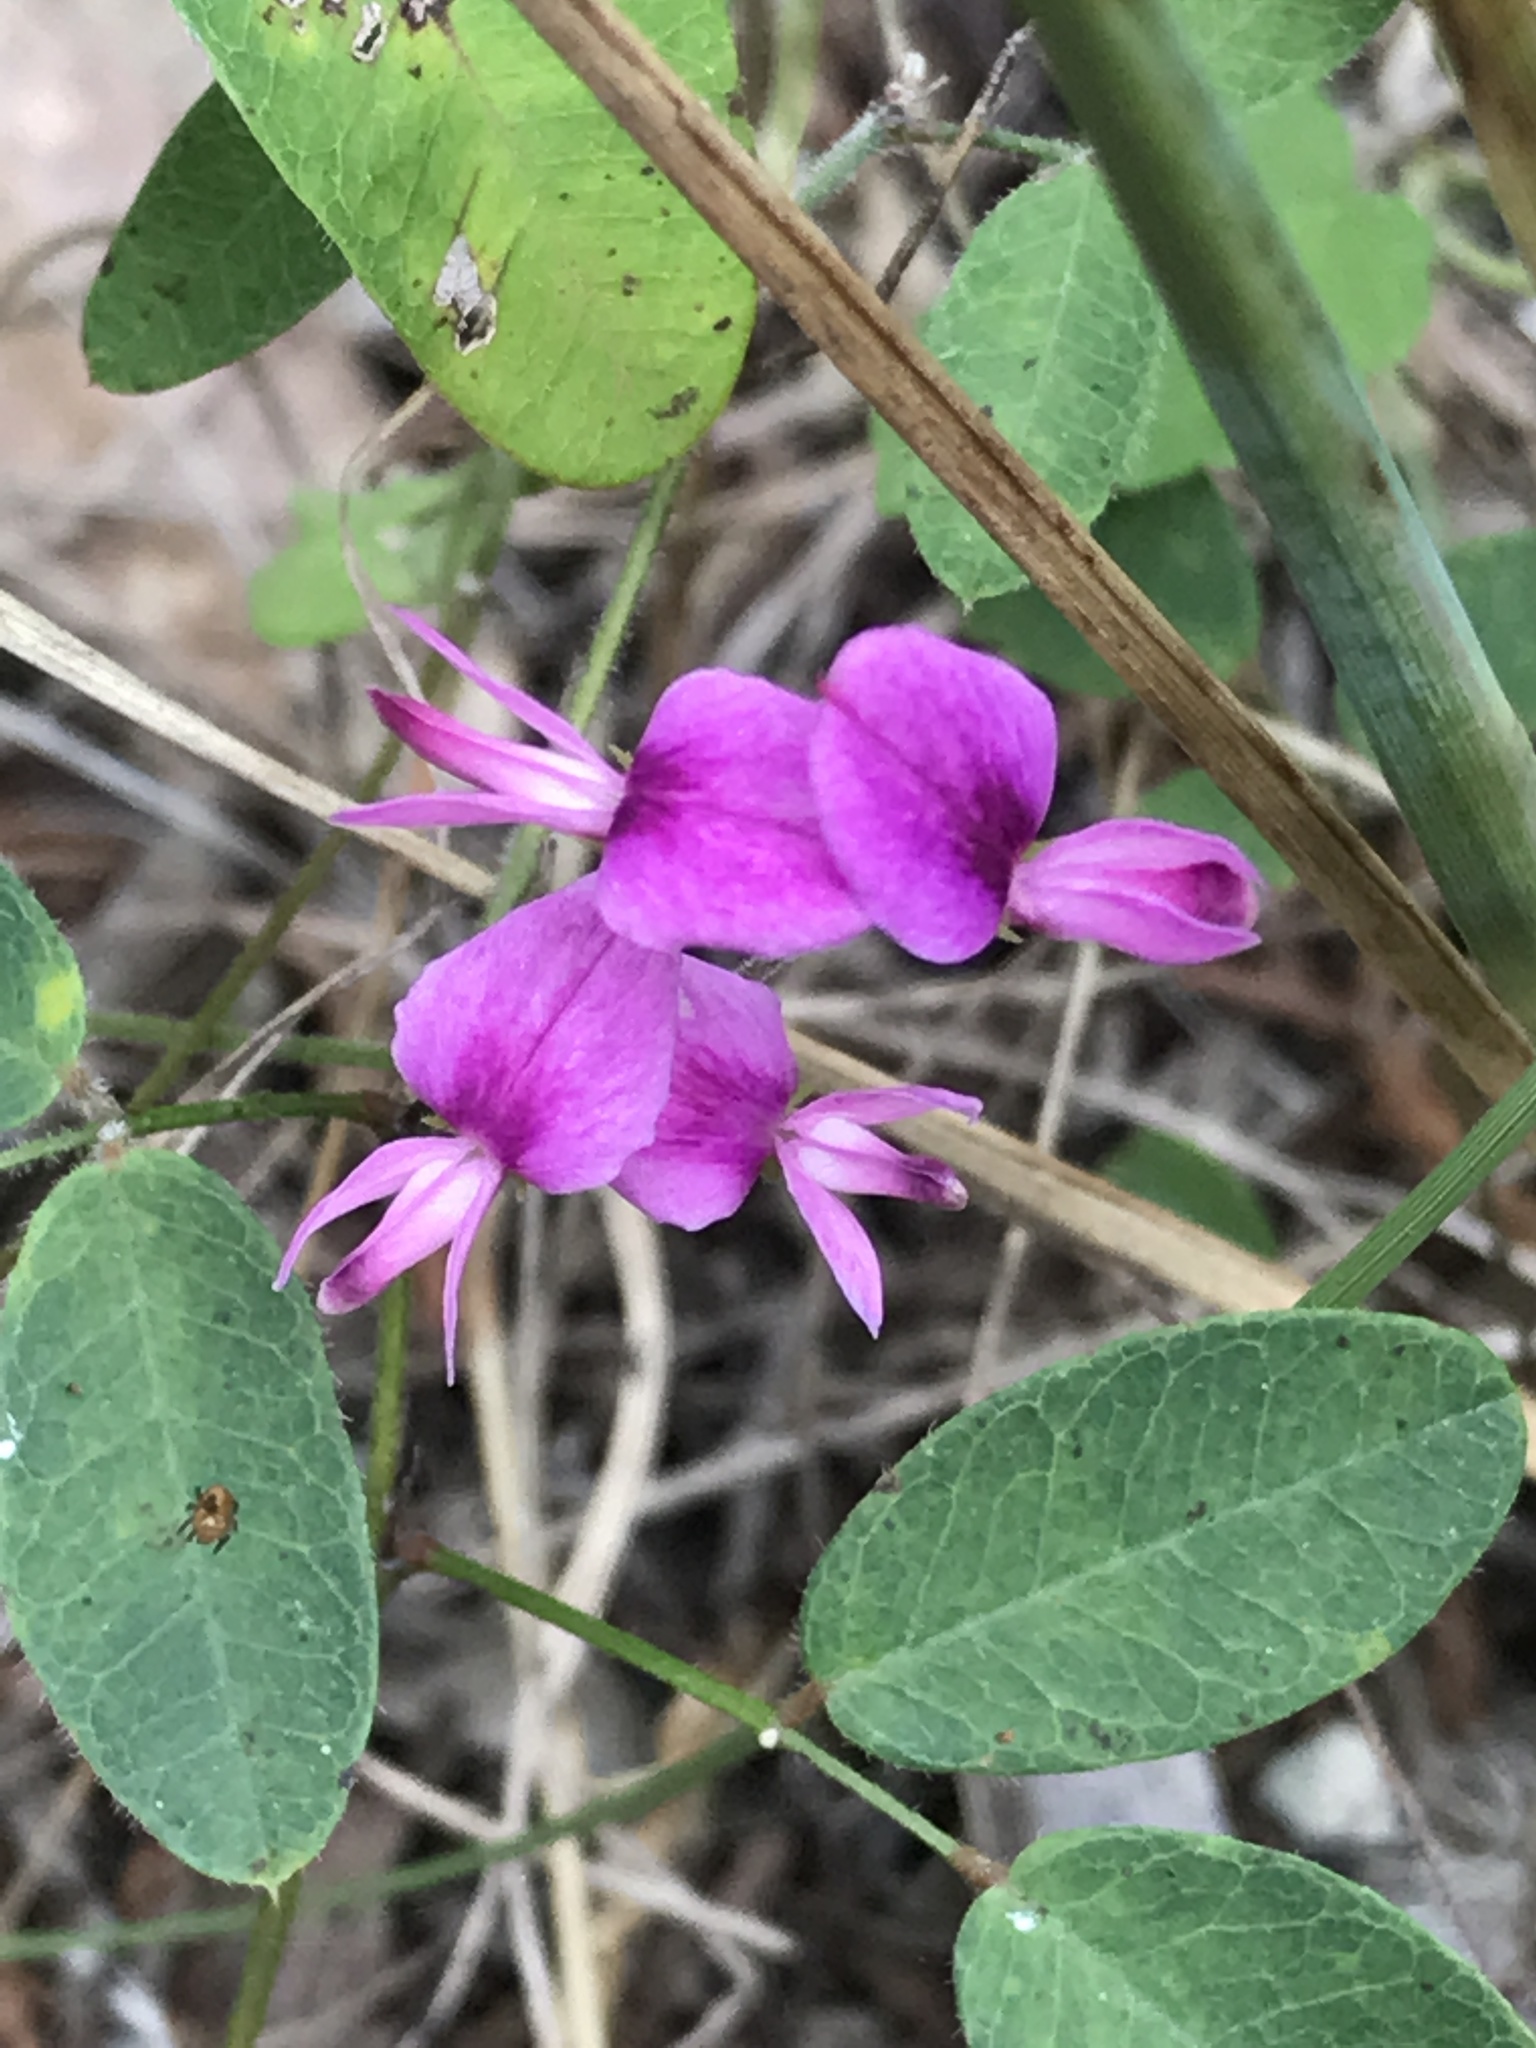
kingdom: Plantae
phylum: Tracheophyta
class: Magnoliopsida
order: Fabales
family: Fabaceae
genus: Lespedeza
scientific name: Lespedeza procumbens
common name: Downy trailing bush-clover
